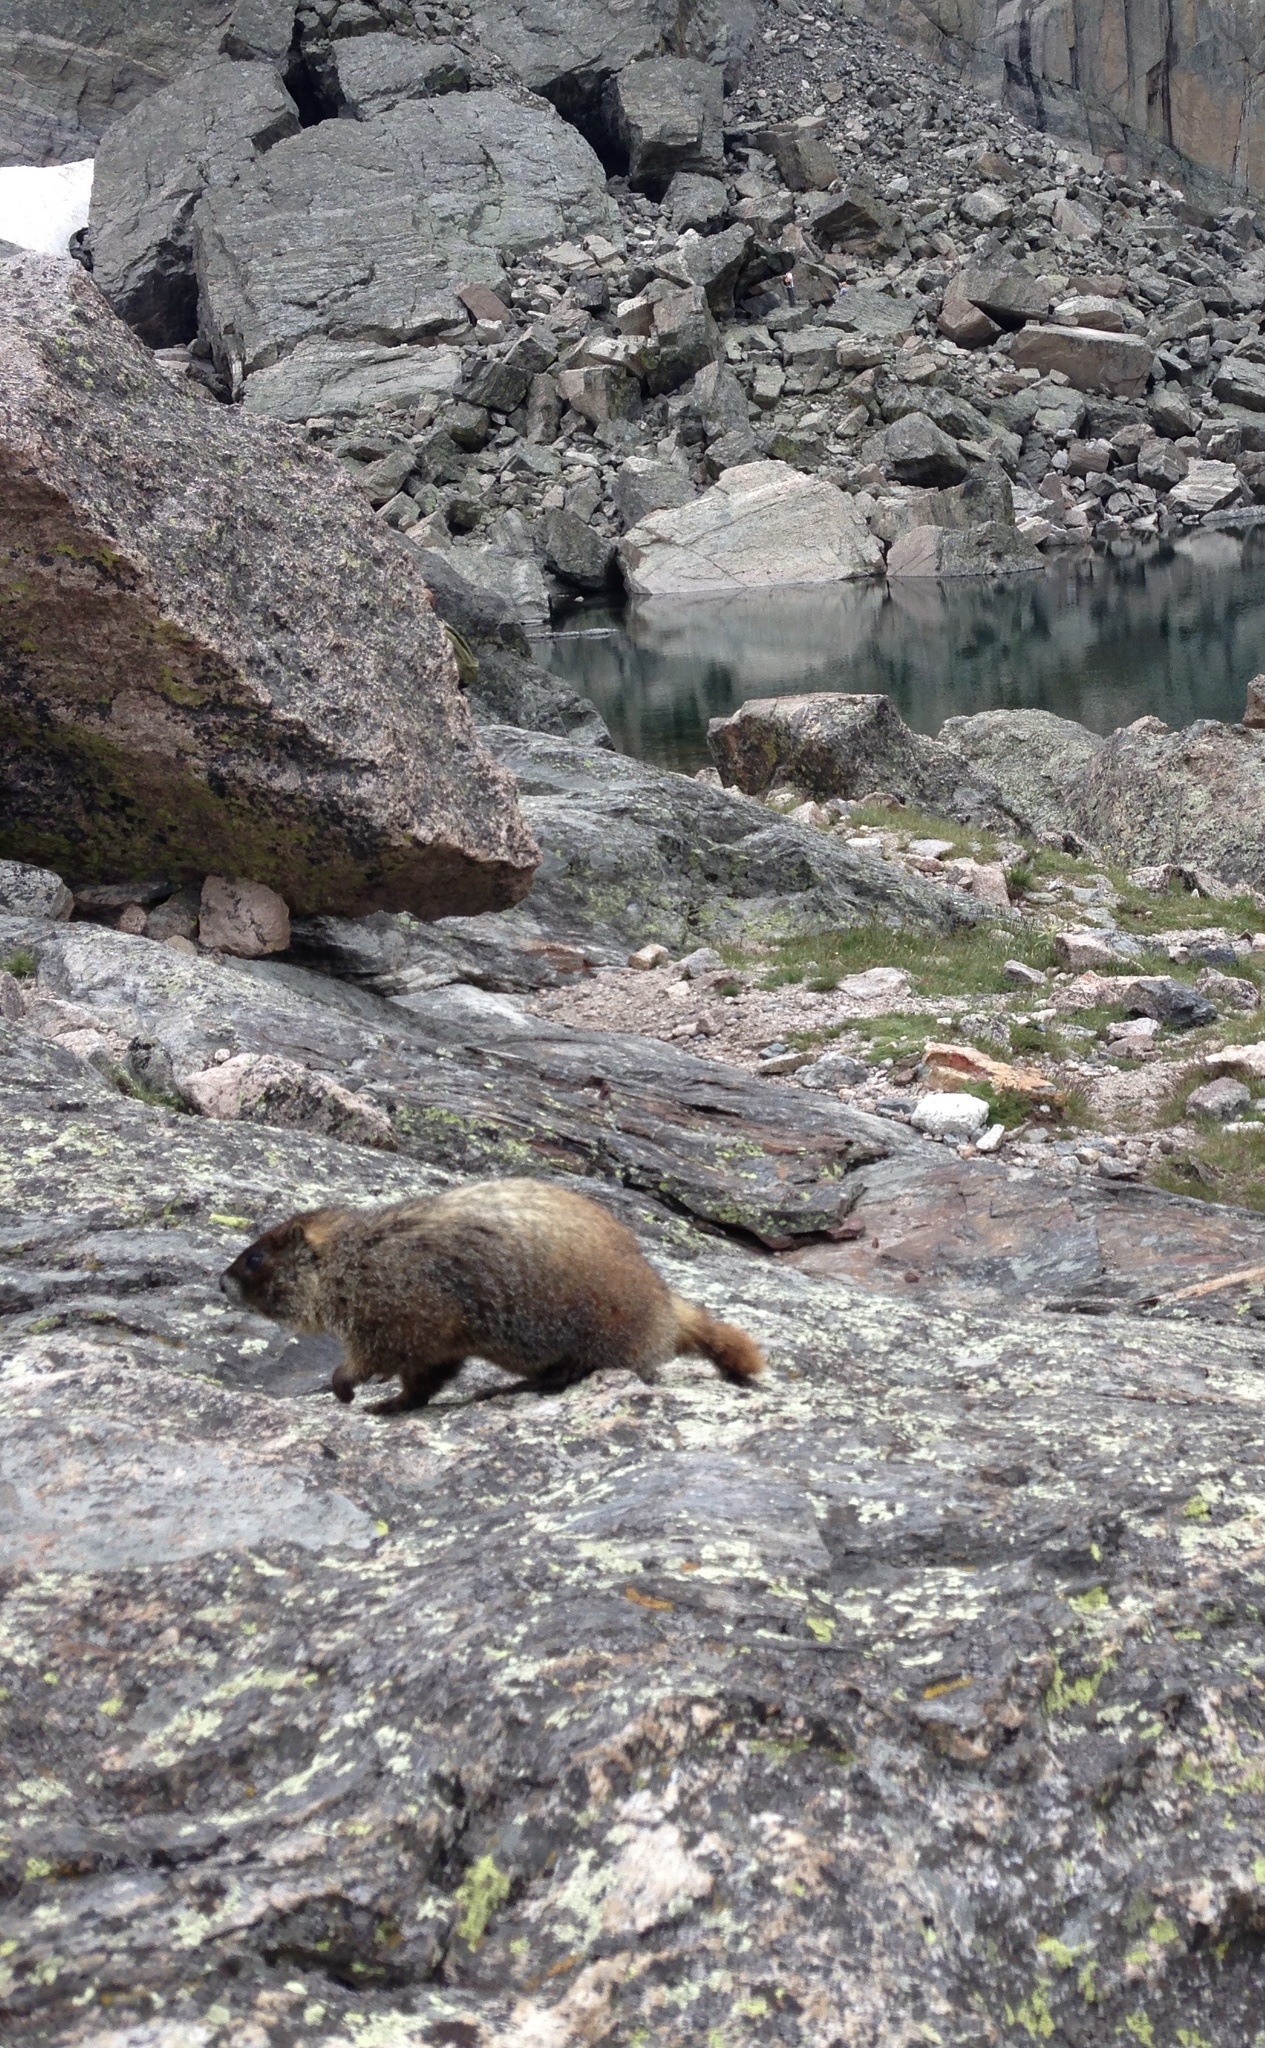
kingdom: Animalia
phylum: Chordata
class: Mammalia
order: Rodentia
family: Sciuridae
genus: Marmota
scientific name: Marmota flaviventris
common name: Yellow-bellied marmot
